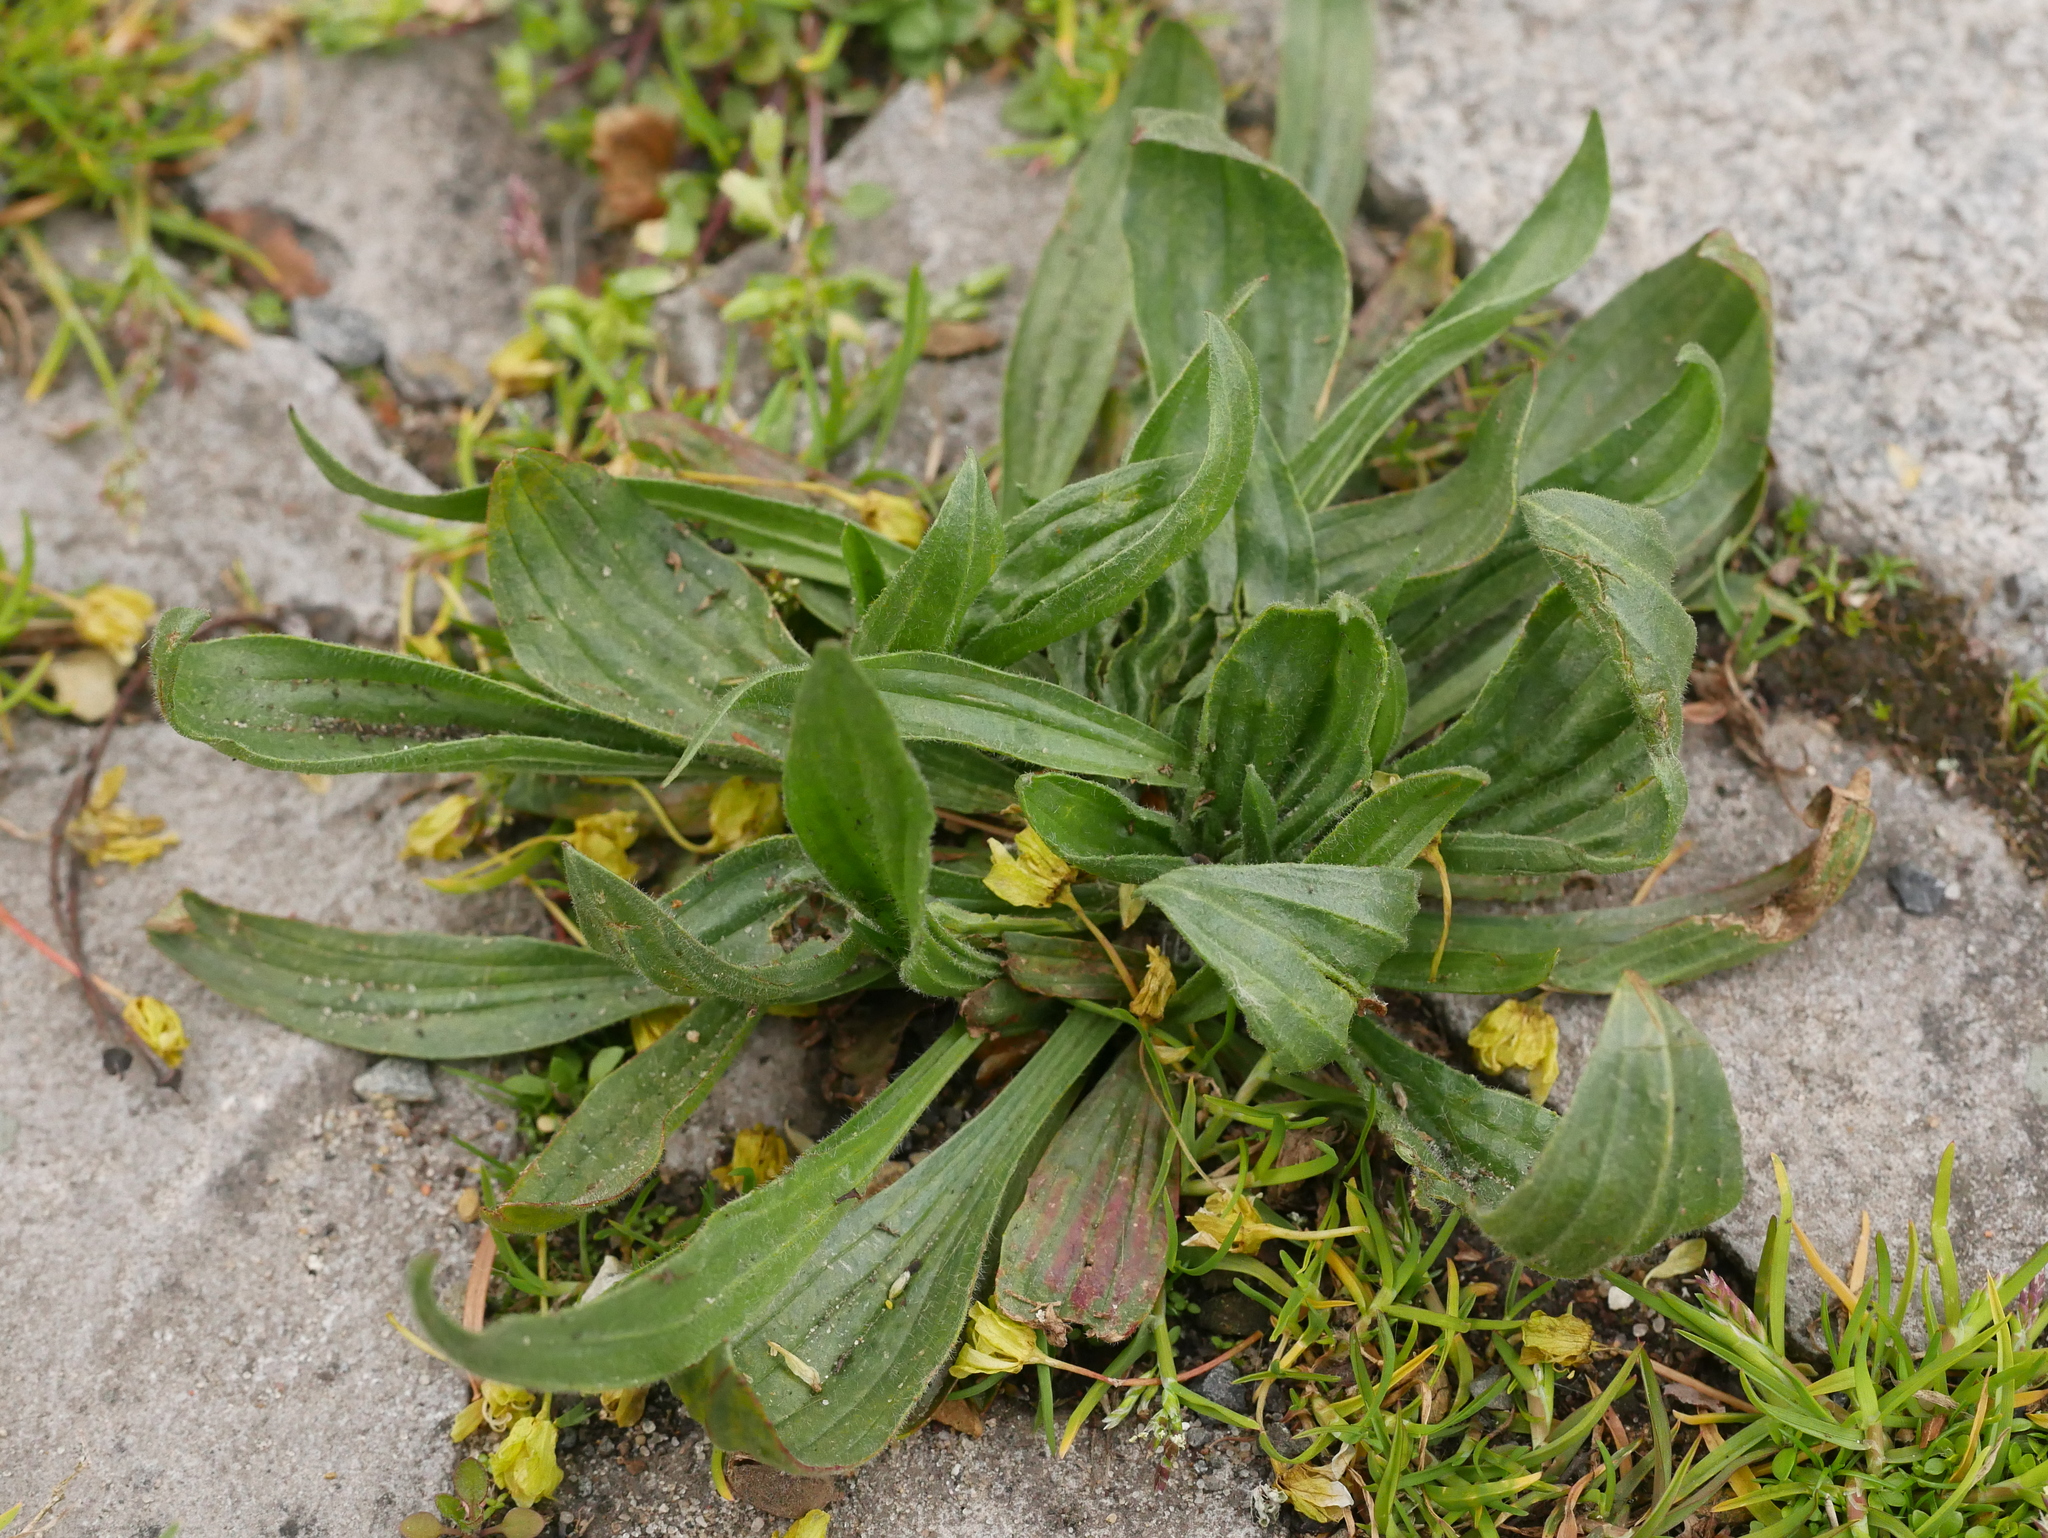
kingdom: Plantae
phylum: Tracheophyta
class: Magnoliopsida
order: Lamiales
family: Plantaginaceae
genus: Plantago
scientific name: Plantago lanceolata
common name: Ribwort plantain
